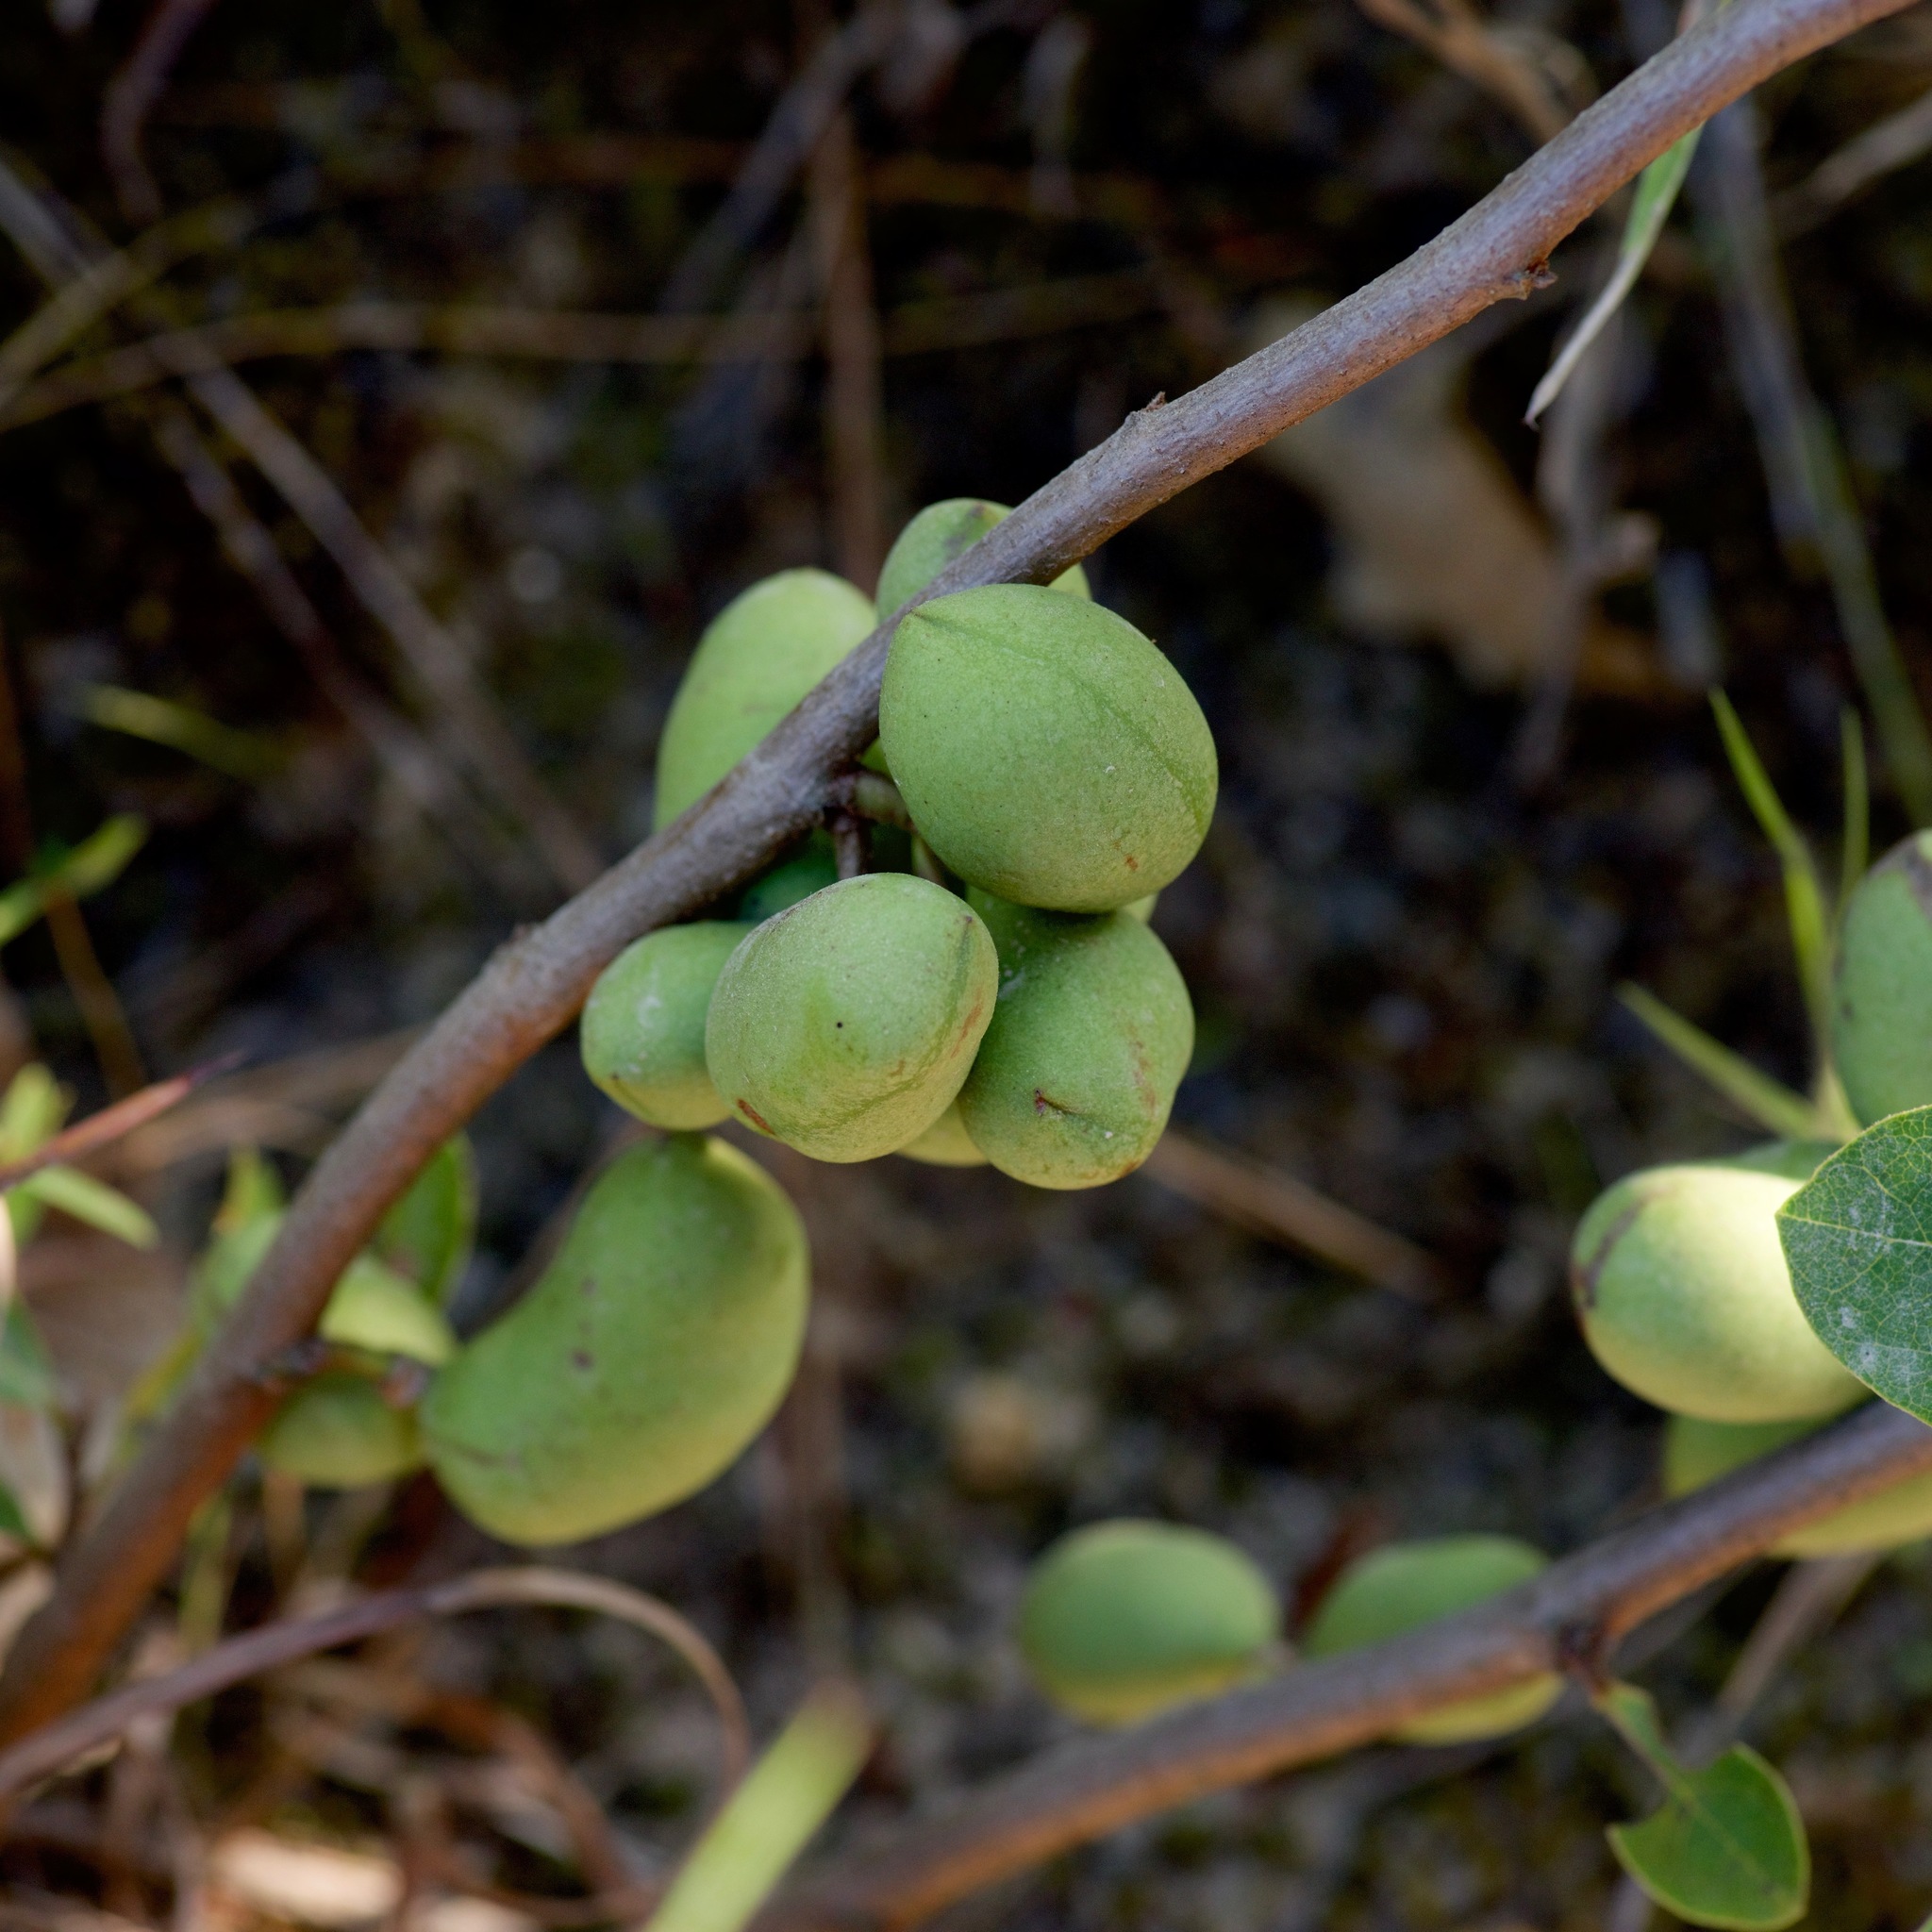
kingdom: Plantae
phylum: Tracheophyta
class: Magnoliopsida
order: Magnoliales
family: Annonaceae
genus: Asimina
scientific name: Asimina parviflora
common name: Dwarf pawpaw
